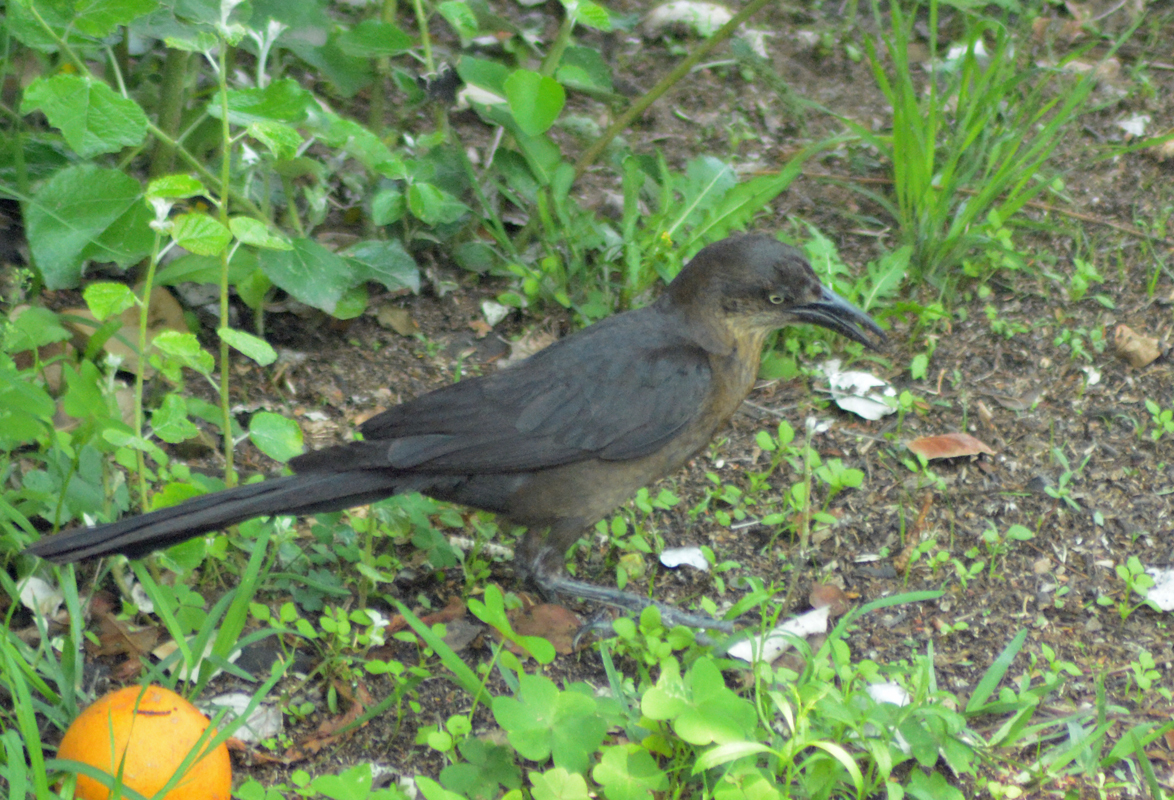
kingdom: Animalia
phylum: Chordata
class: Aves
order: Passeriformes
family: Icteridae
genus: Quiscalus
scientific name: Quiscalus mexicanus
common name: Great-tailed grackle
